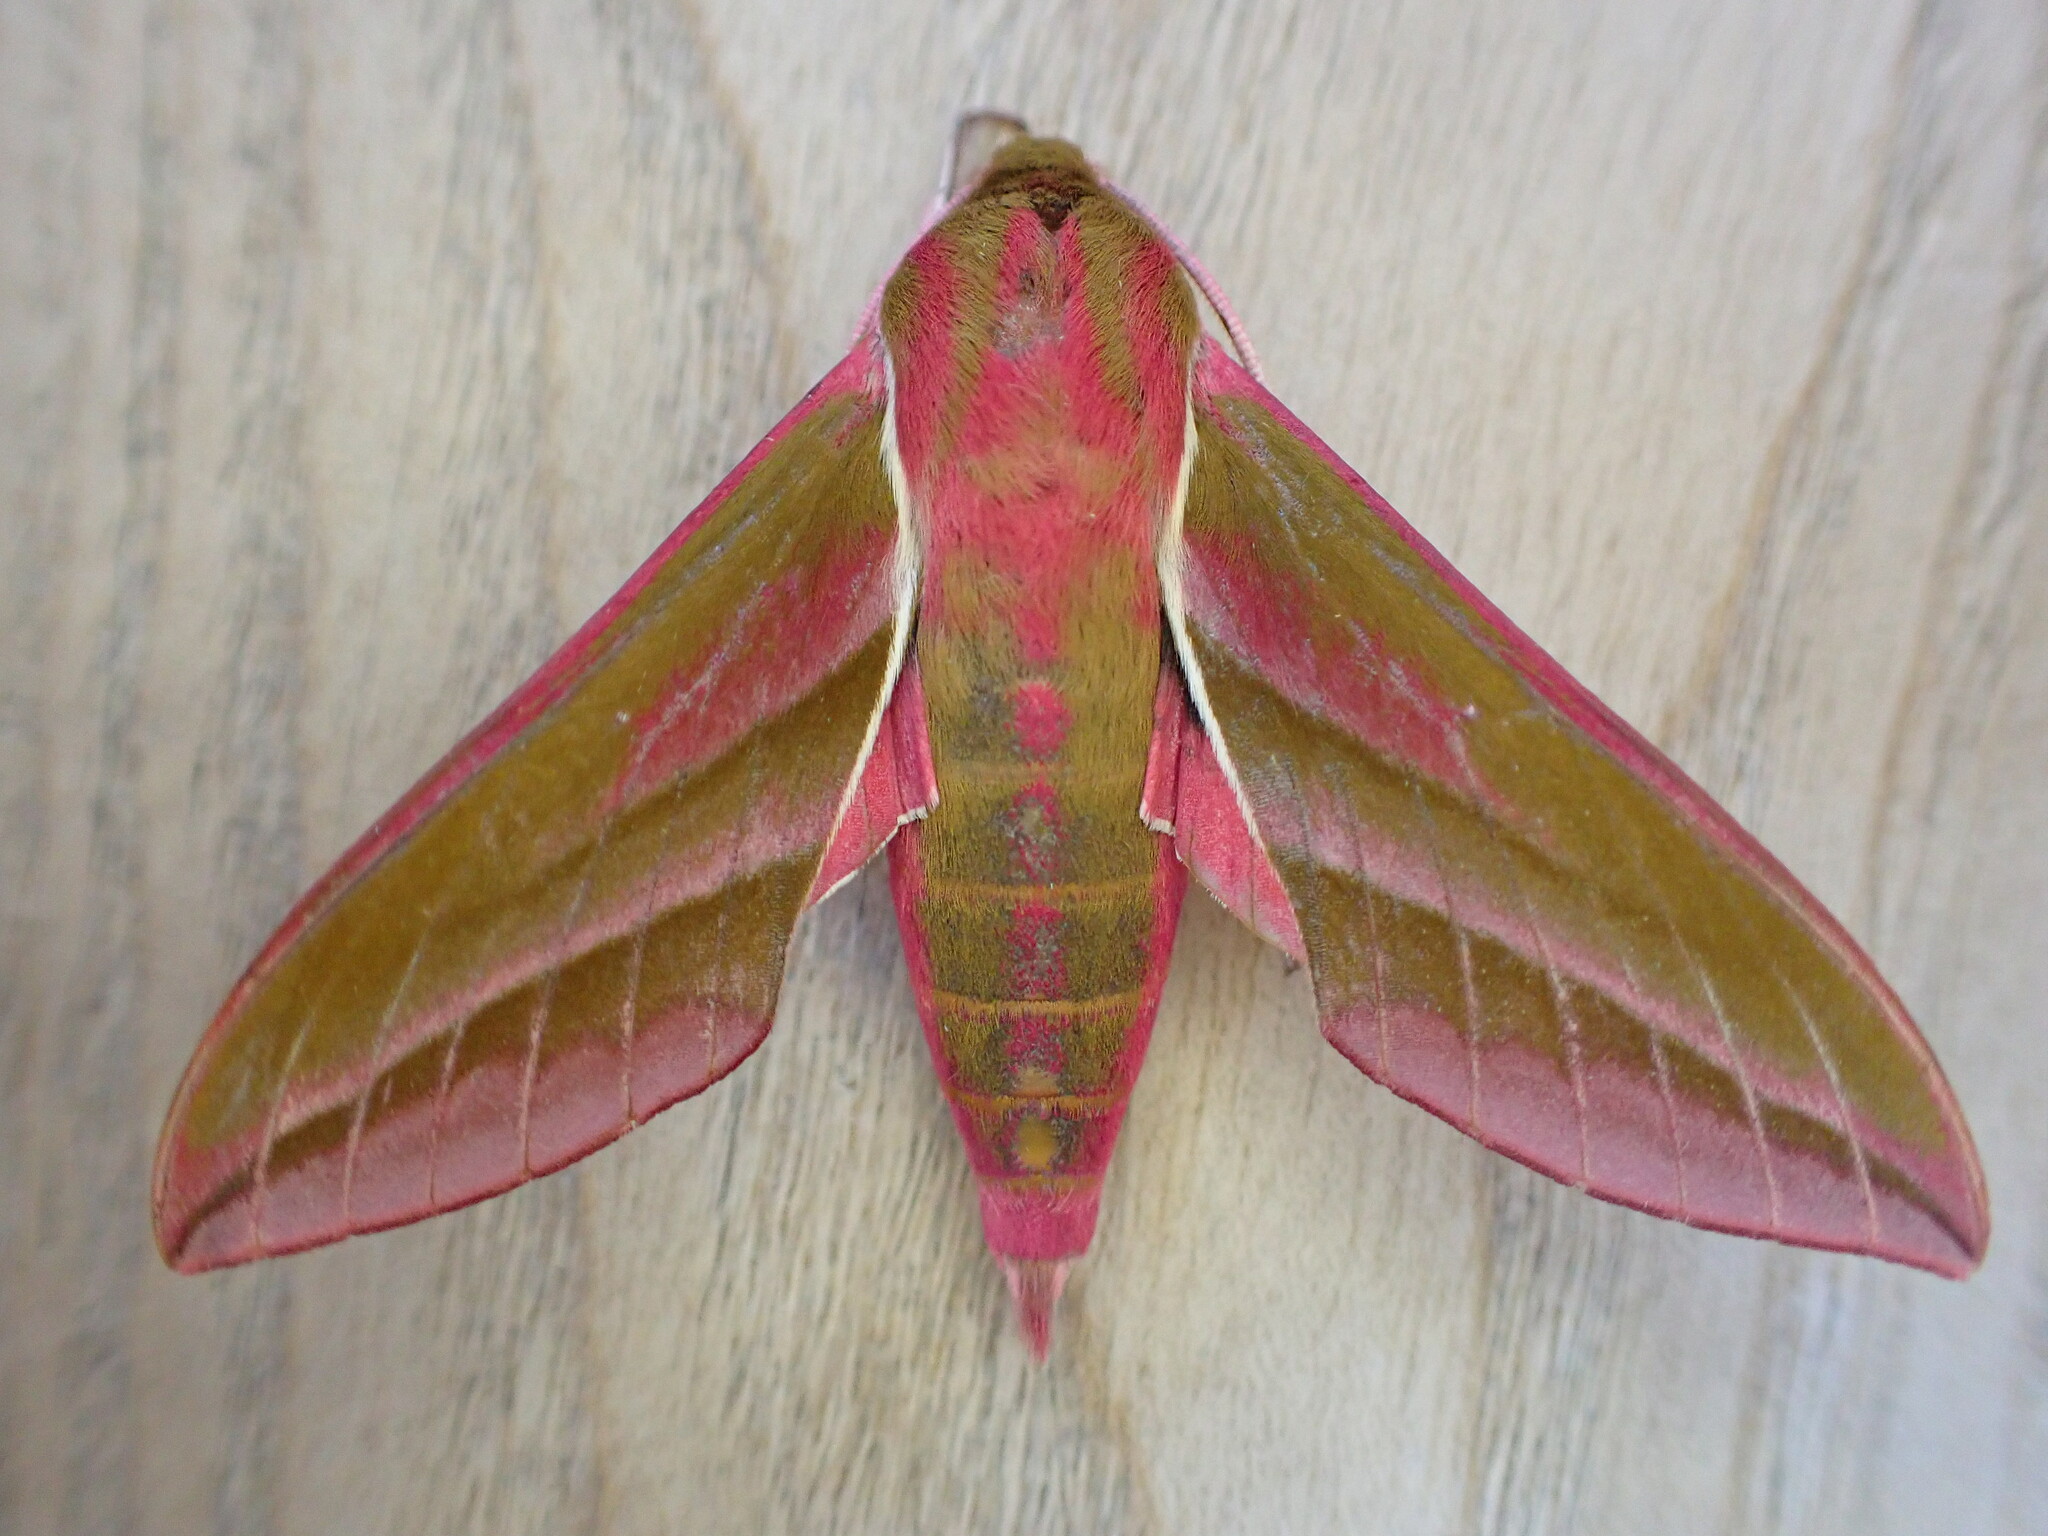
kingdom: Animalia
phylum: Arthropoda
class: Insecta
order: Lepidoptera
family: Sphingidae
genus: Deilephila
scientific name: Deilephila elpenor
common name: Elephant hawk-moth
